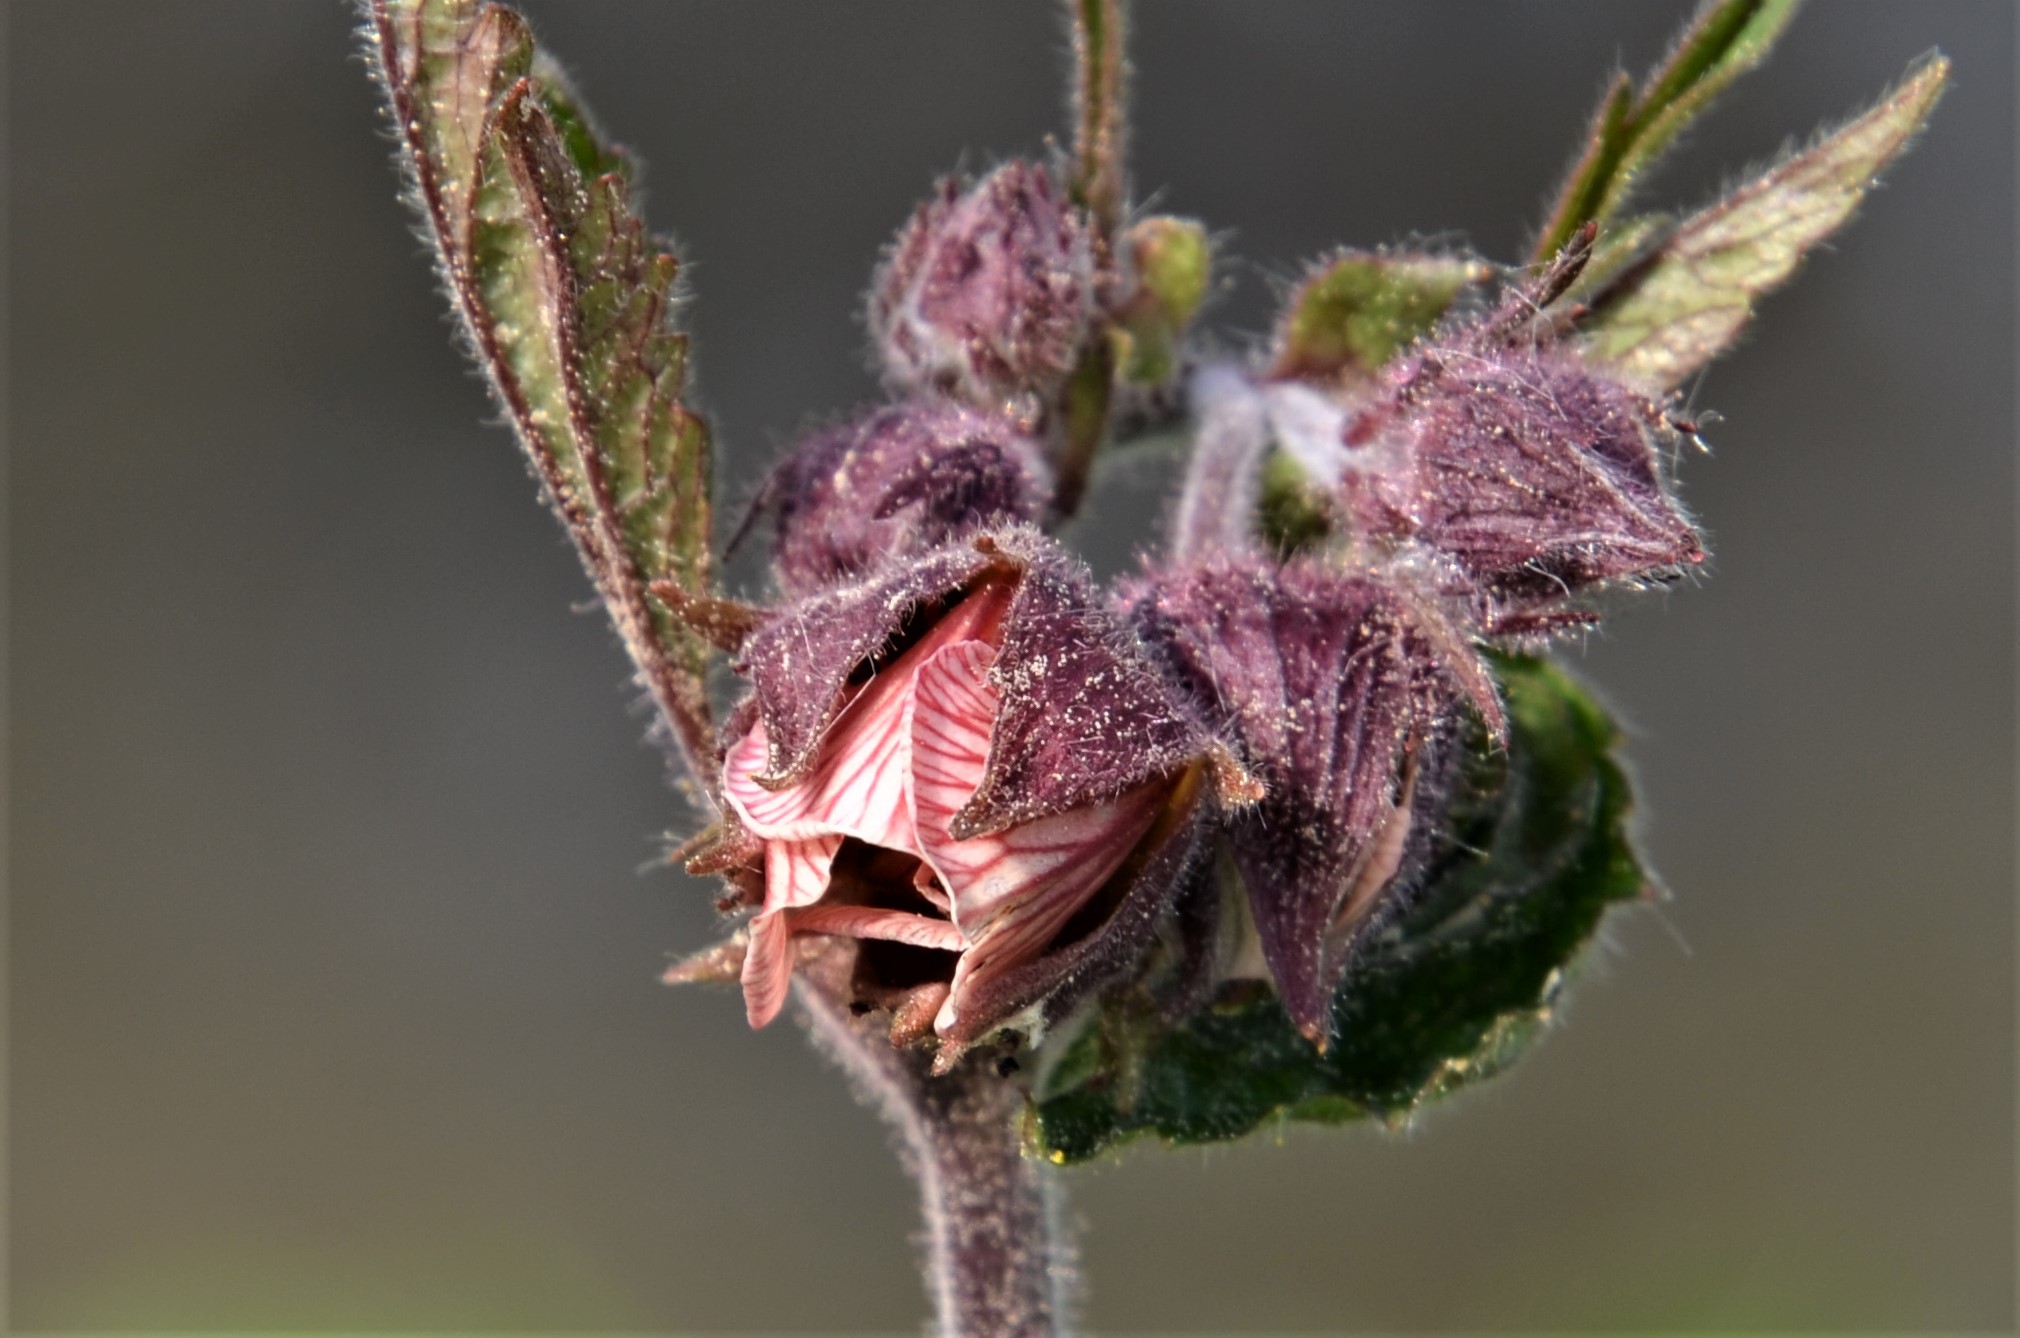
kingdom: Plantae
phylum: Tracheophyta
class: Magnoliopsida
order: Rosales
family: Rosaceae
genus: Geum
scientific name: Geum rivale
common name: Water avens
